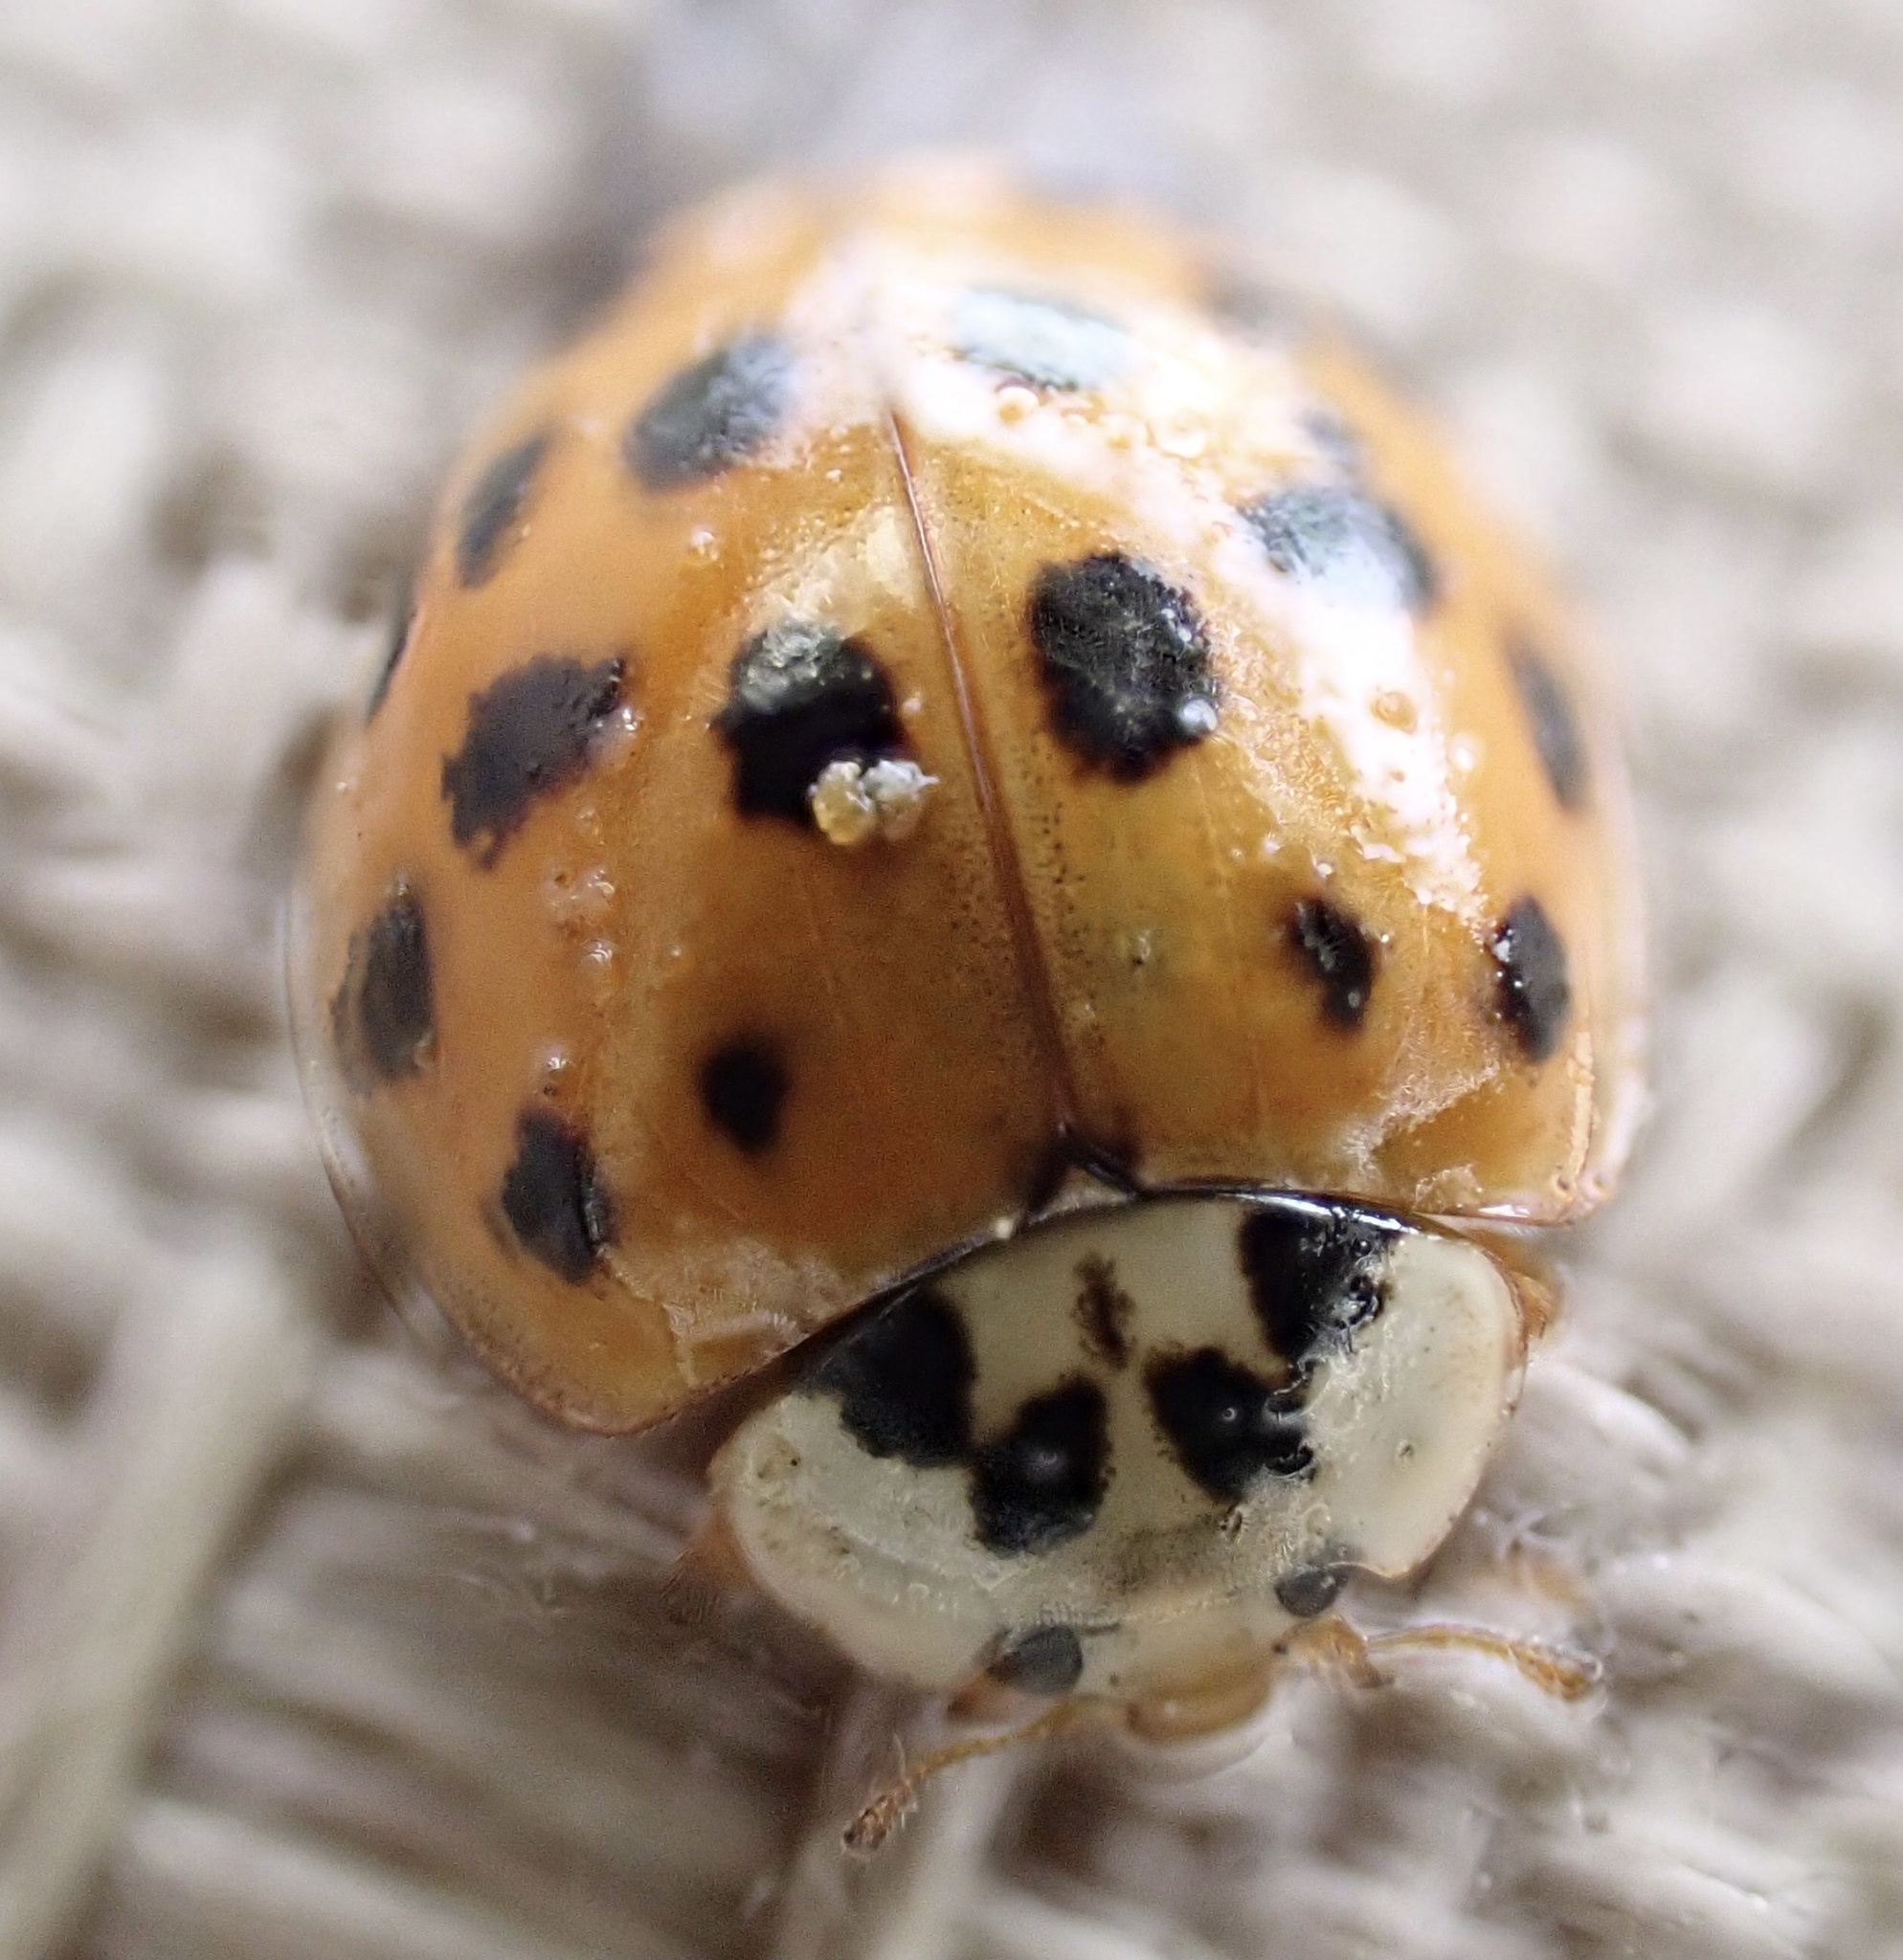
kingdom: Animalia
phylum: Arthropoda
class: Insecta
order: Coleoptera
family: Coccinellidae
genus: Harmonia
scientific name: Harmonia axyridis
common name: Harlequin ladybird
